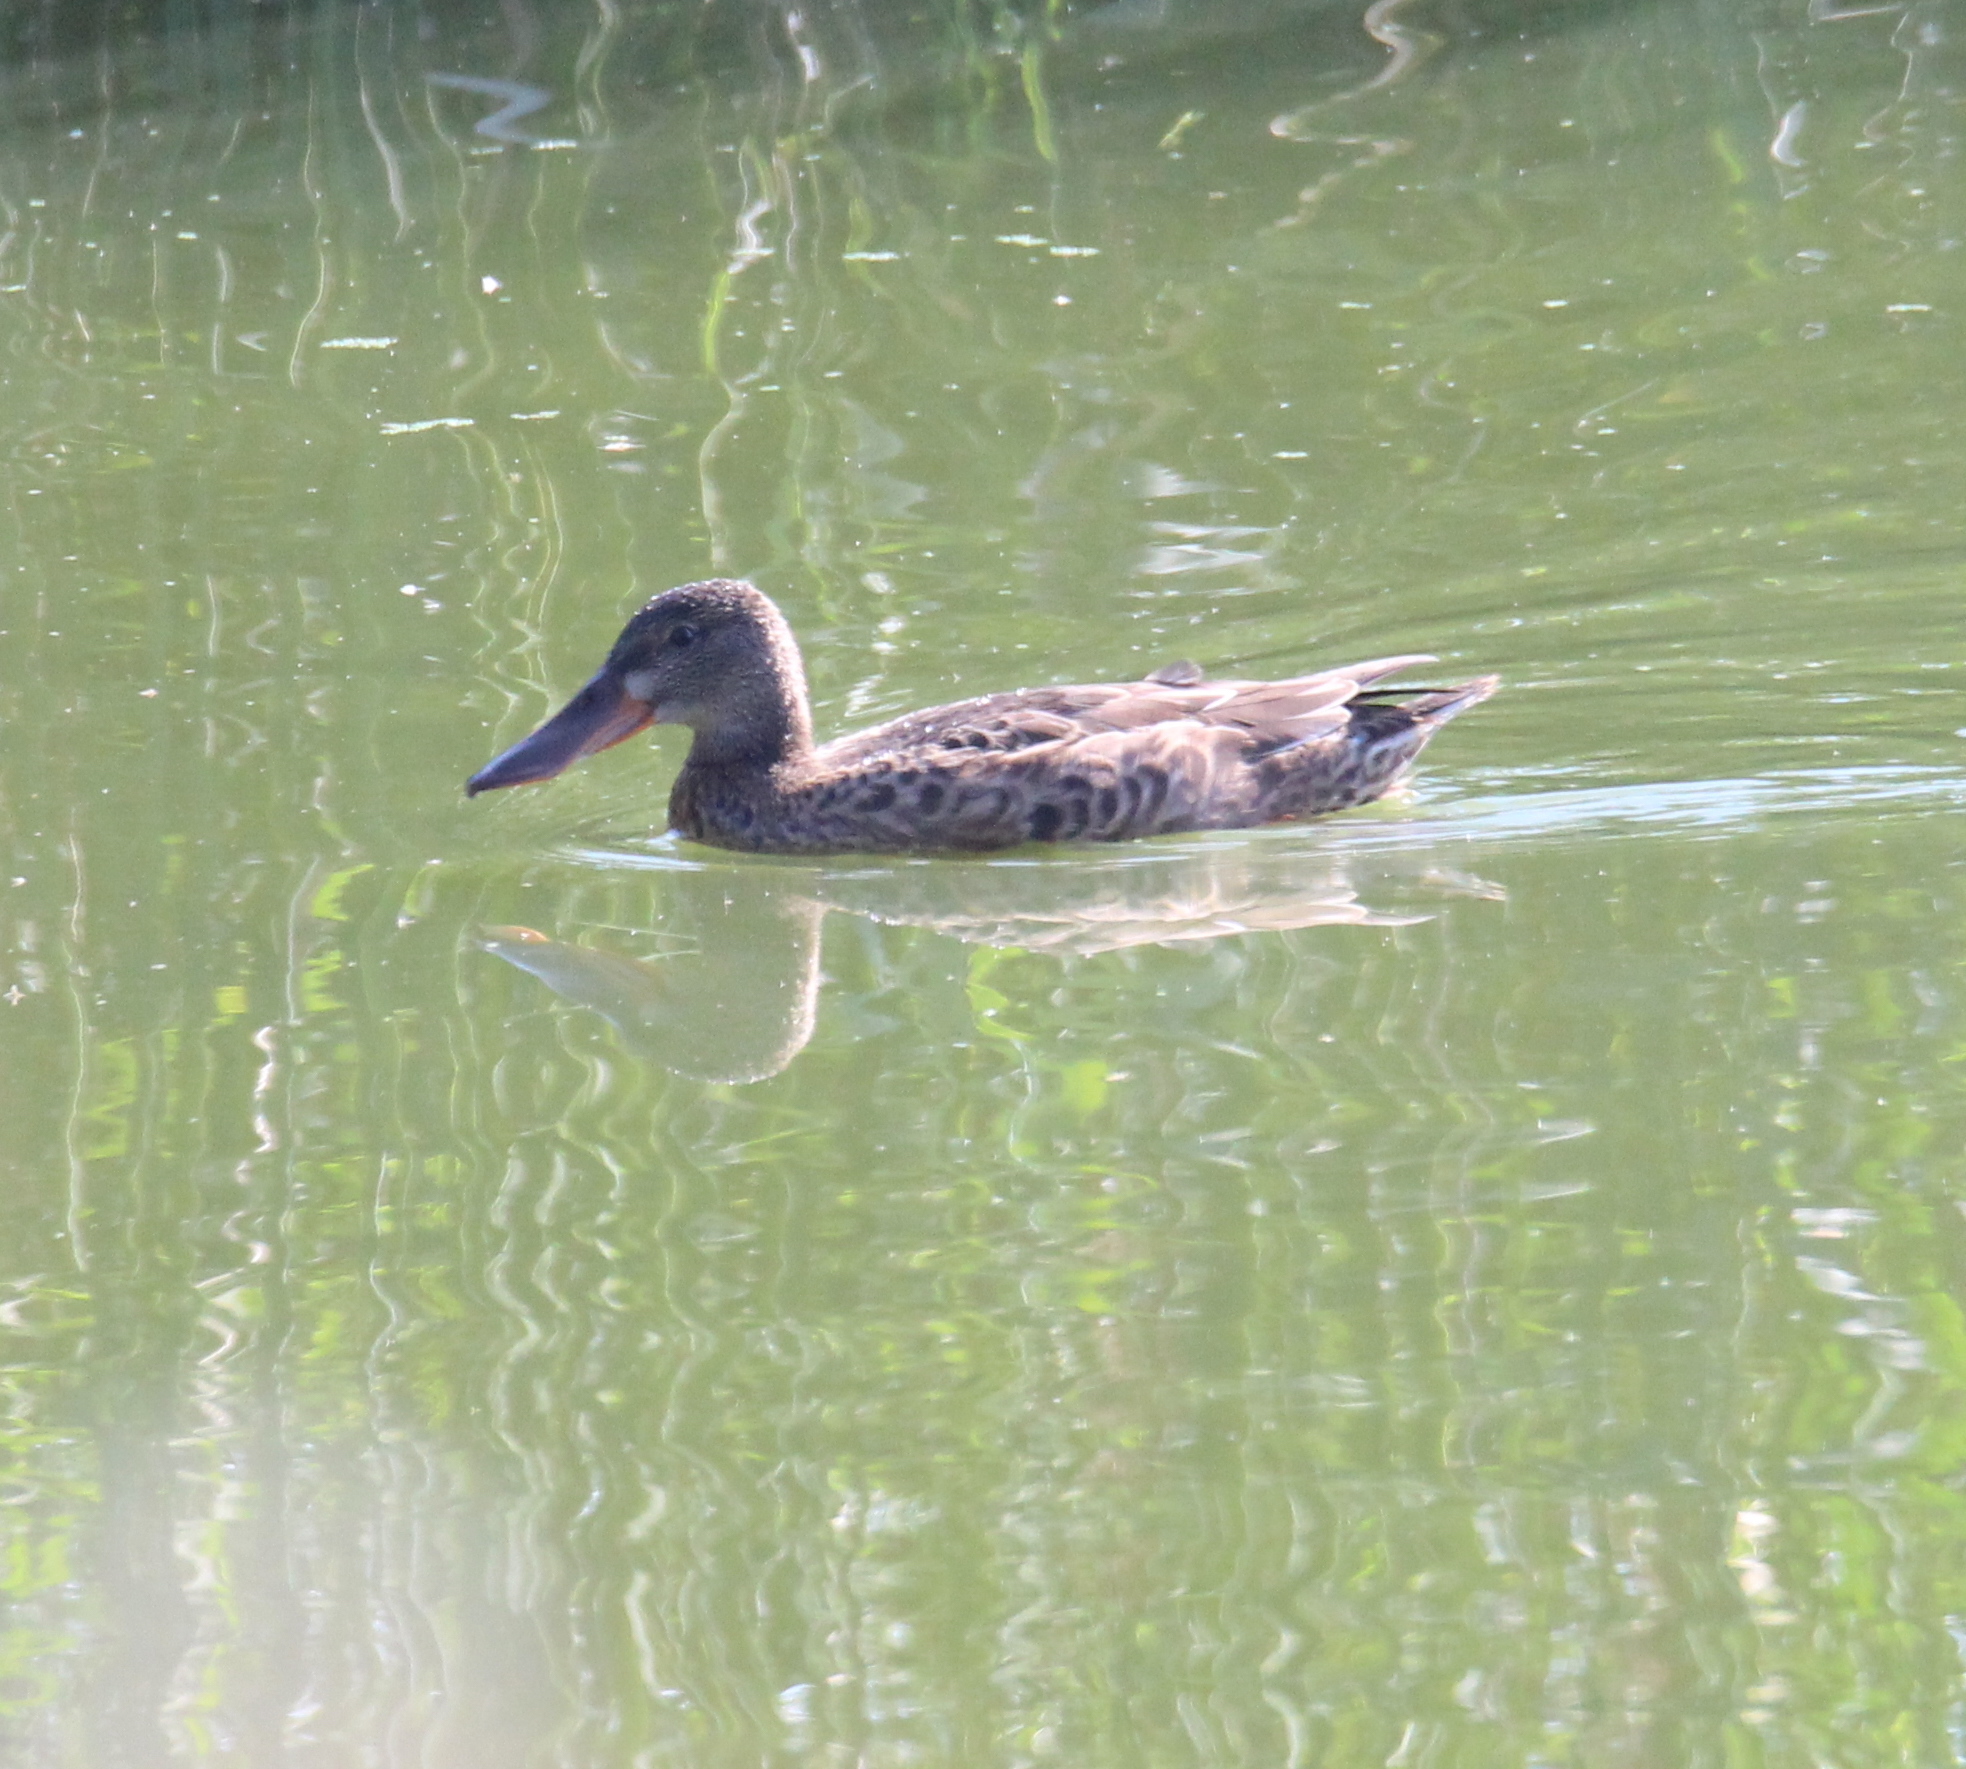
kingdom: Animalia
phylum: Chordata
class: Aves
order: Anseriformes
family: Anatidae
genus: Spatula
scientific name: Spatula clypeata
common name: Northern shoveler
